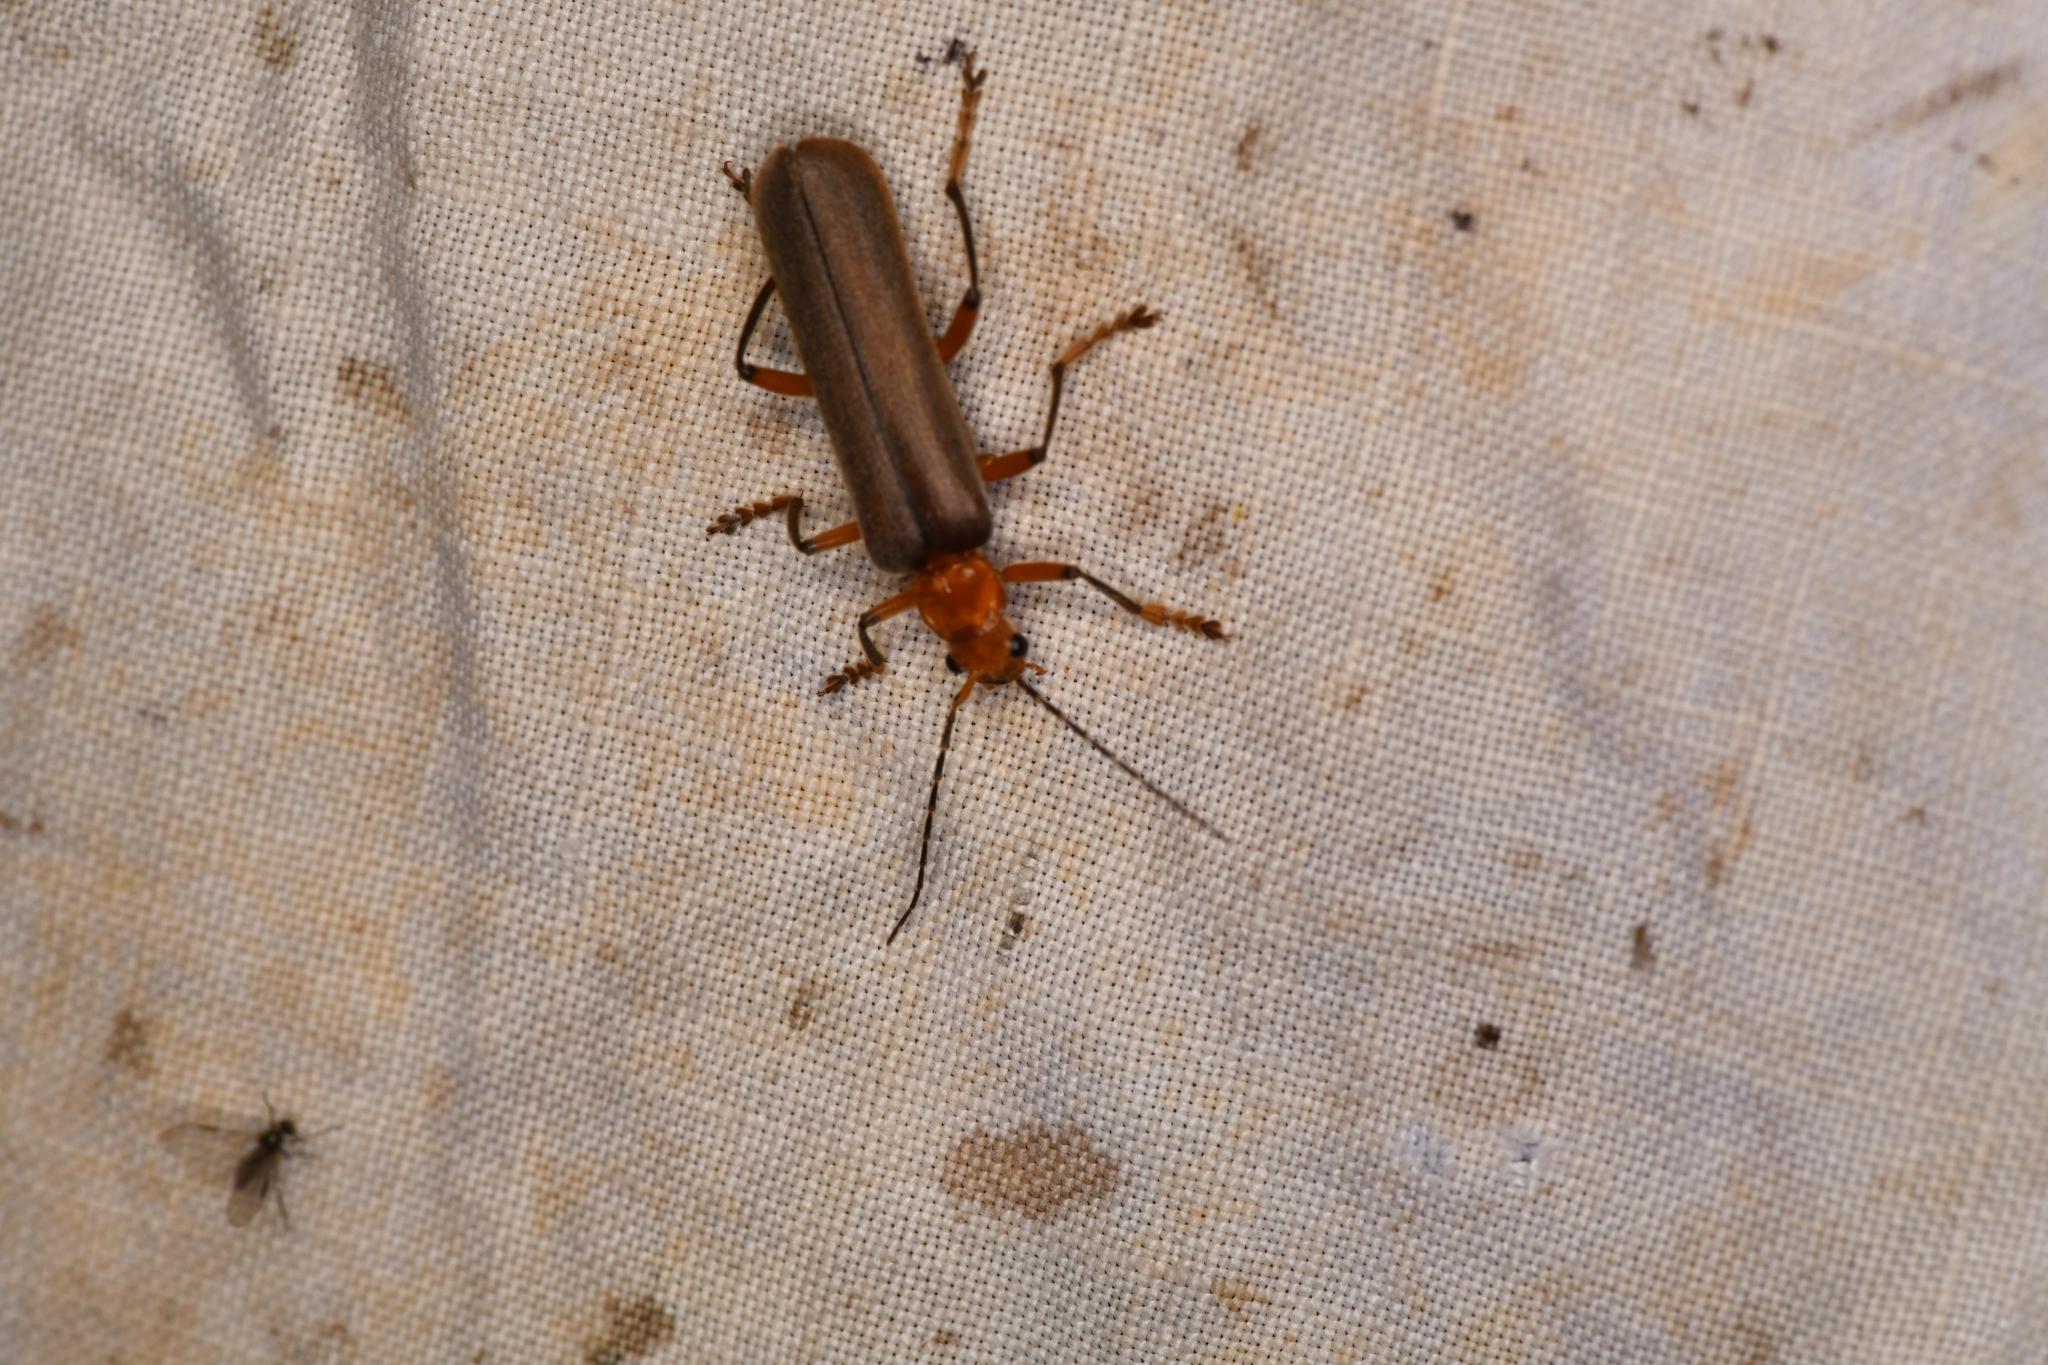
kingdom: Animalia
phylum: Arthropoda
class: Insecta
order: Coleoptera
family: Cantharidae
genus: Pacificanthia
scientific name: Pacificanthia consors
